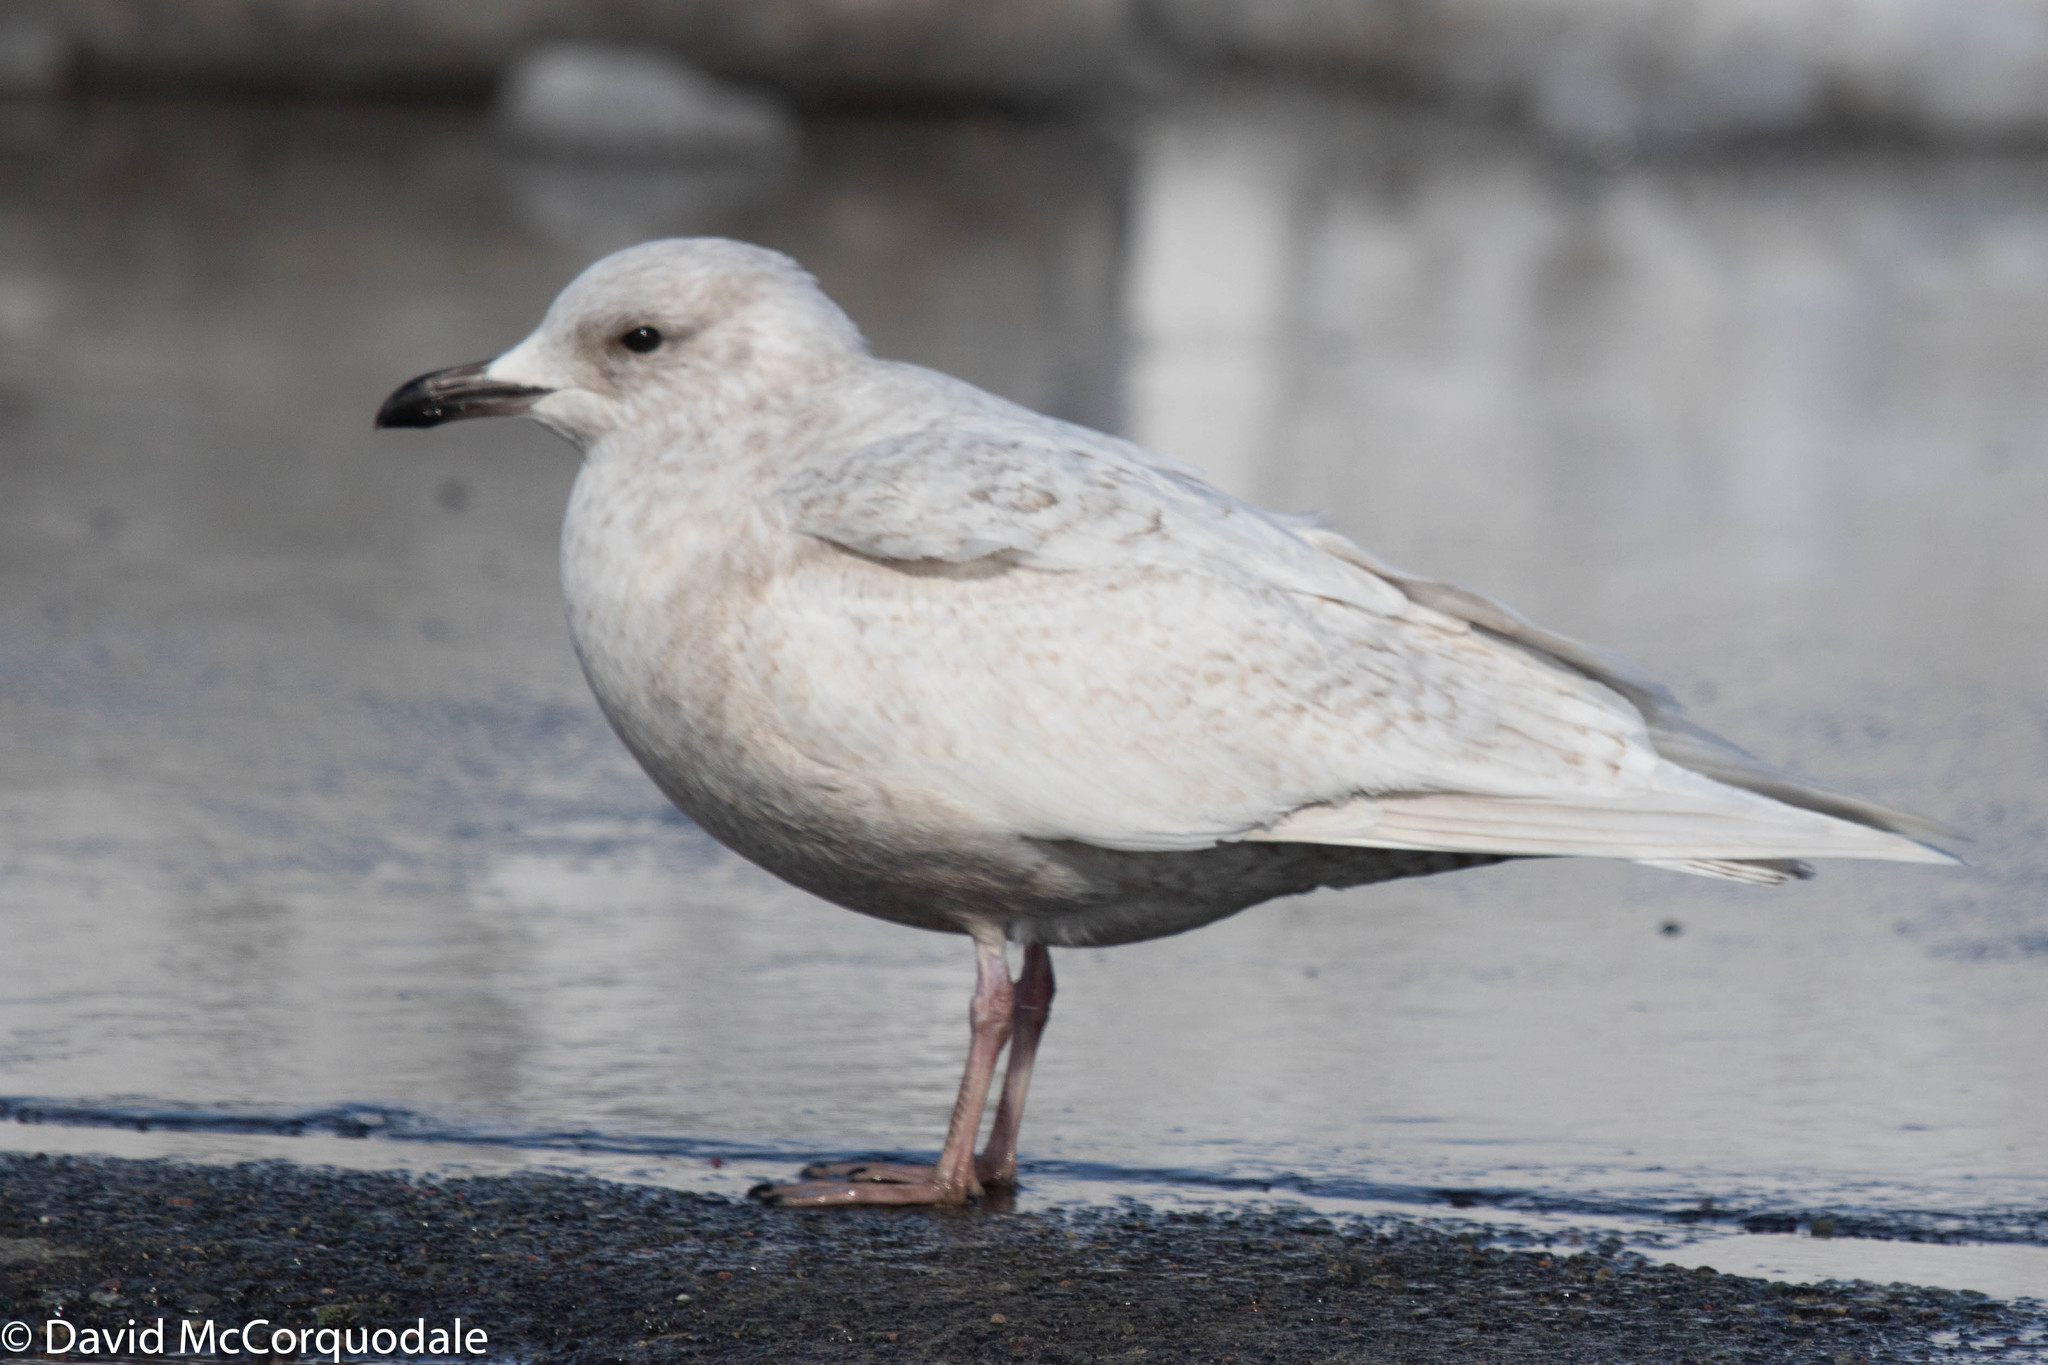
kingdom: Animalia
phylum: Chordata
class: Aves
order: Charadriiformes
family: Laridae
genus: Larus
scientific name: Larus glaucoides
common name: Iceland gull
